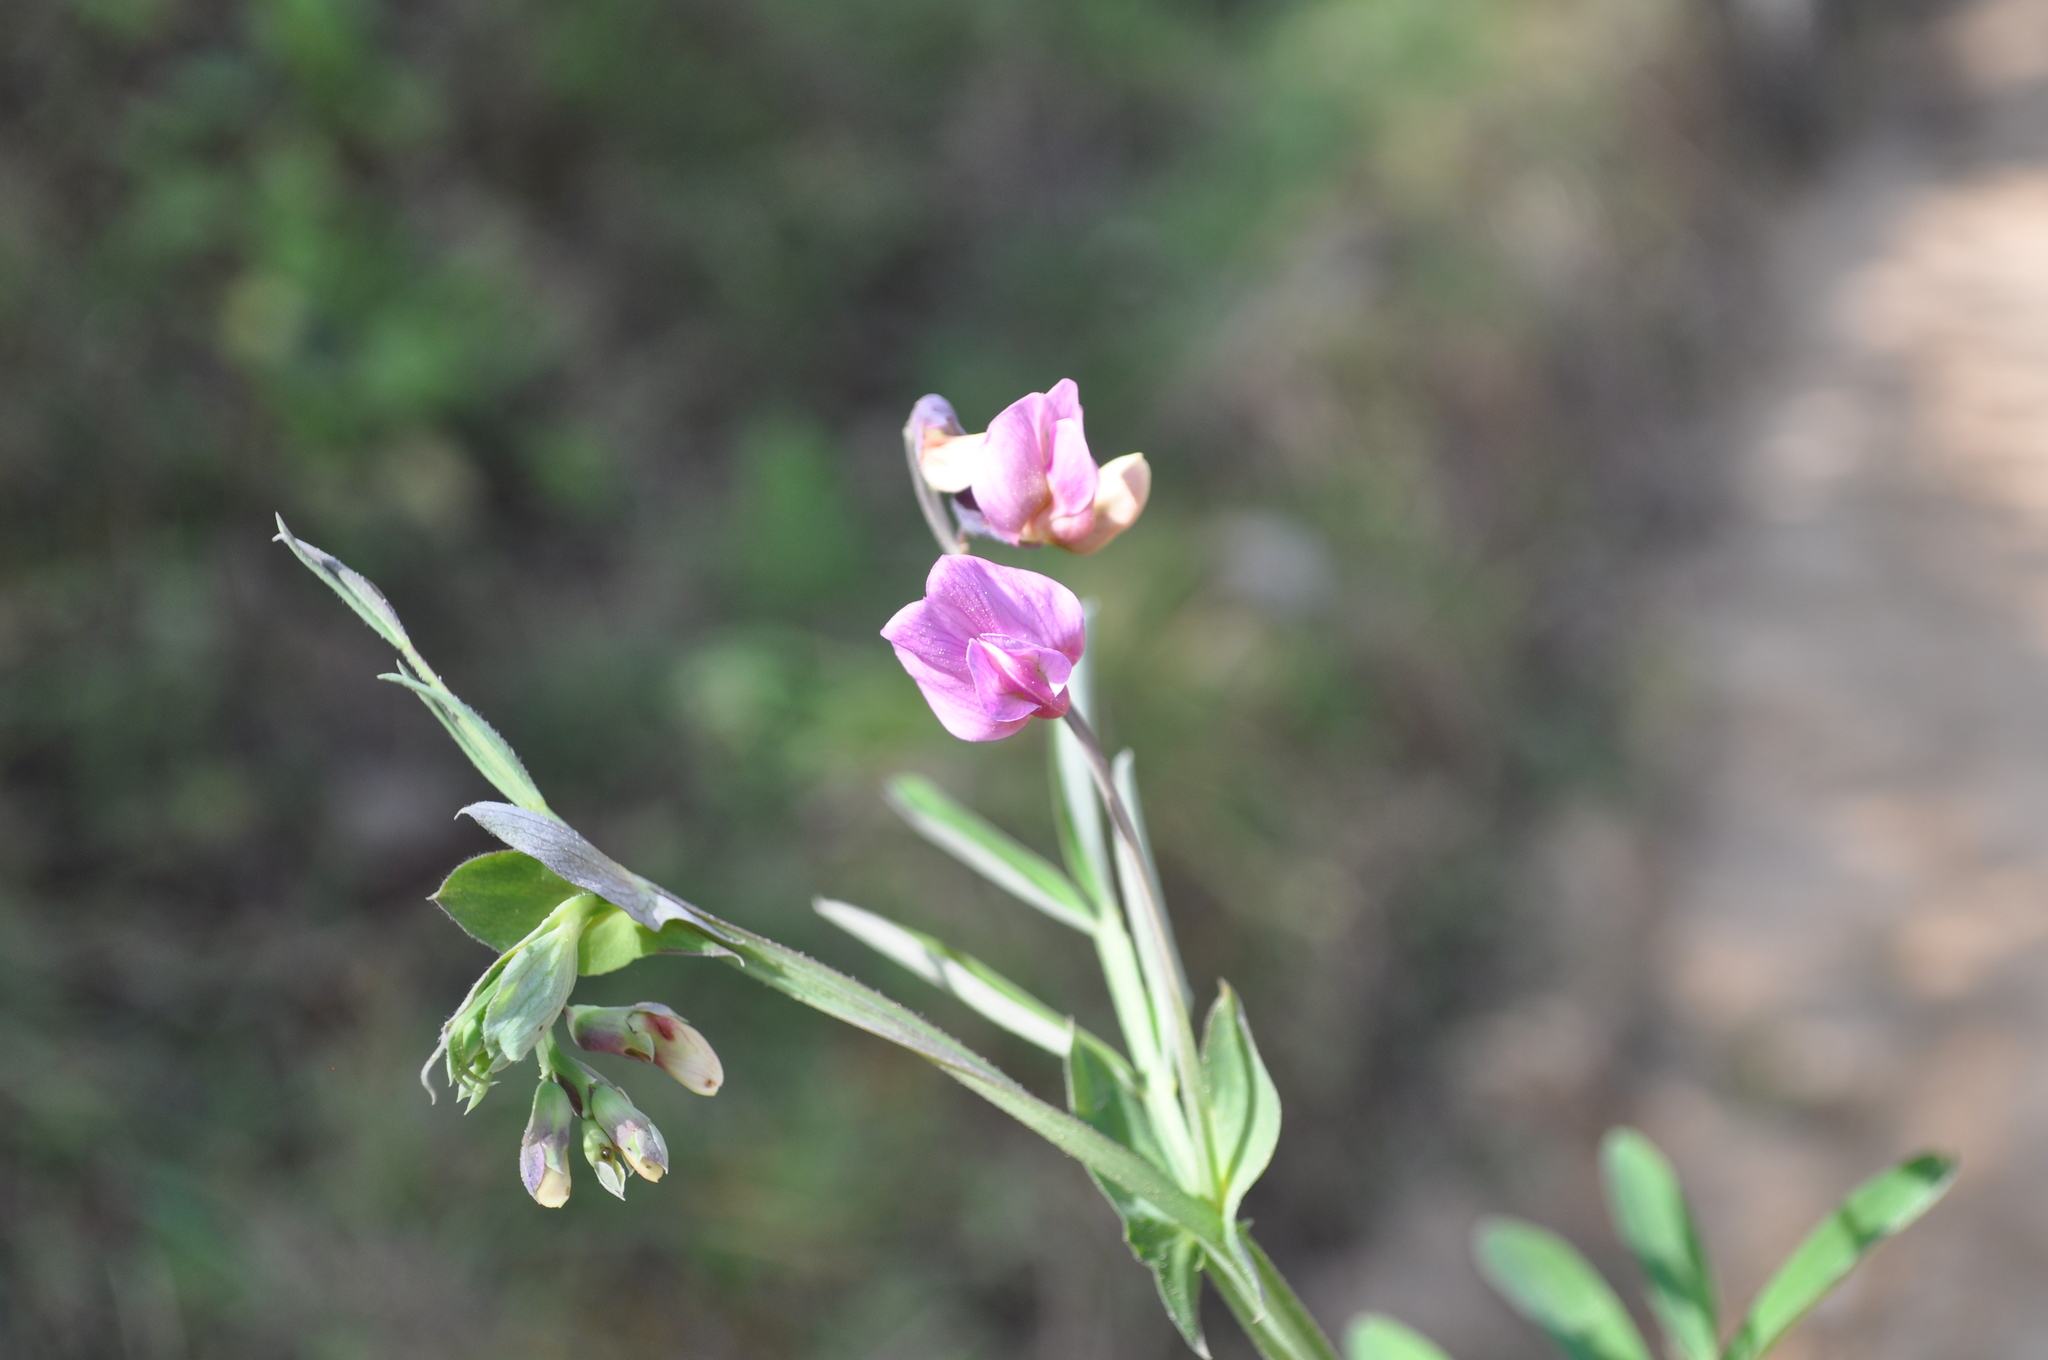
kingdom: Plantae
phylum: Tracheophyta
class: Magnoliopsida
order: Fabales
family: Fabaceae
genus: Lathyrus
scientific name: Lathyrus linifolius
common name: Bitter-vetch
